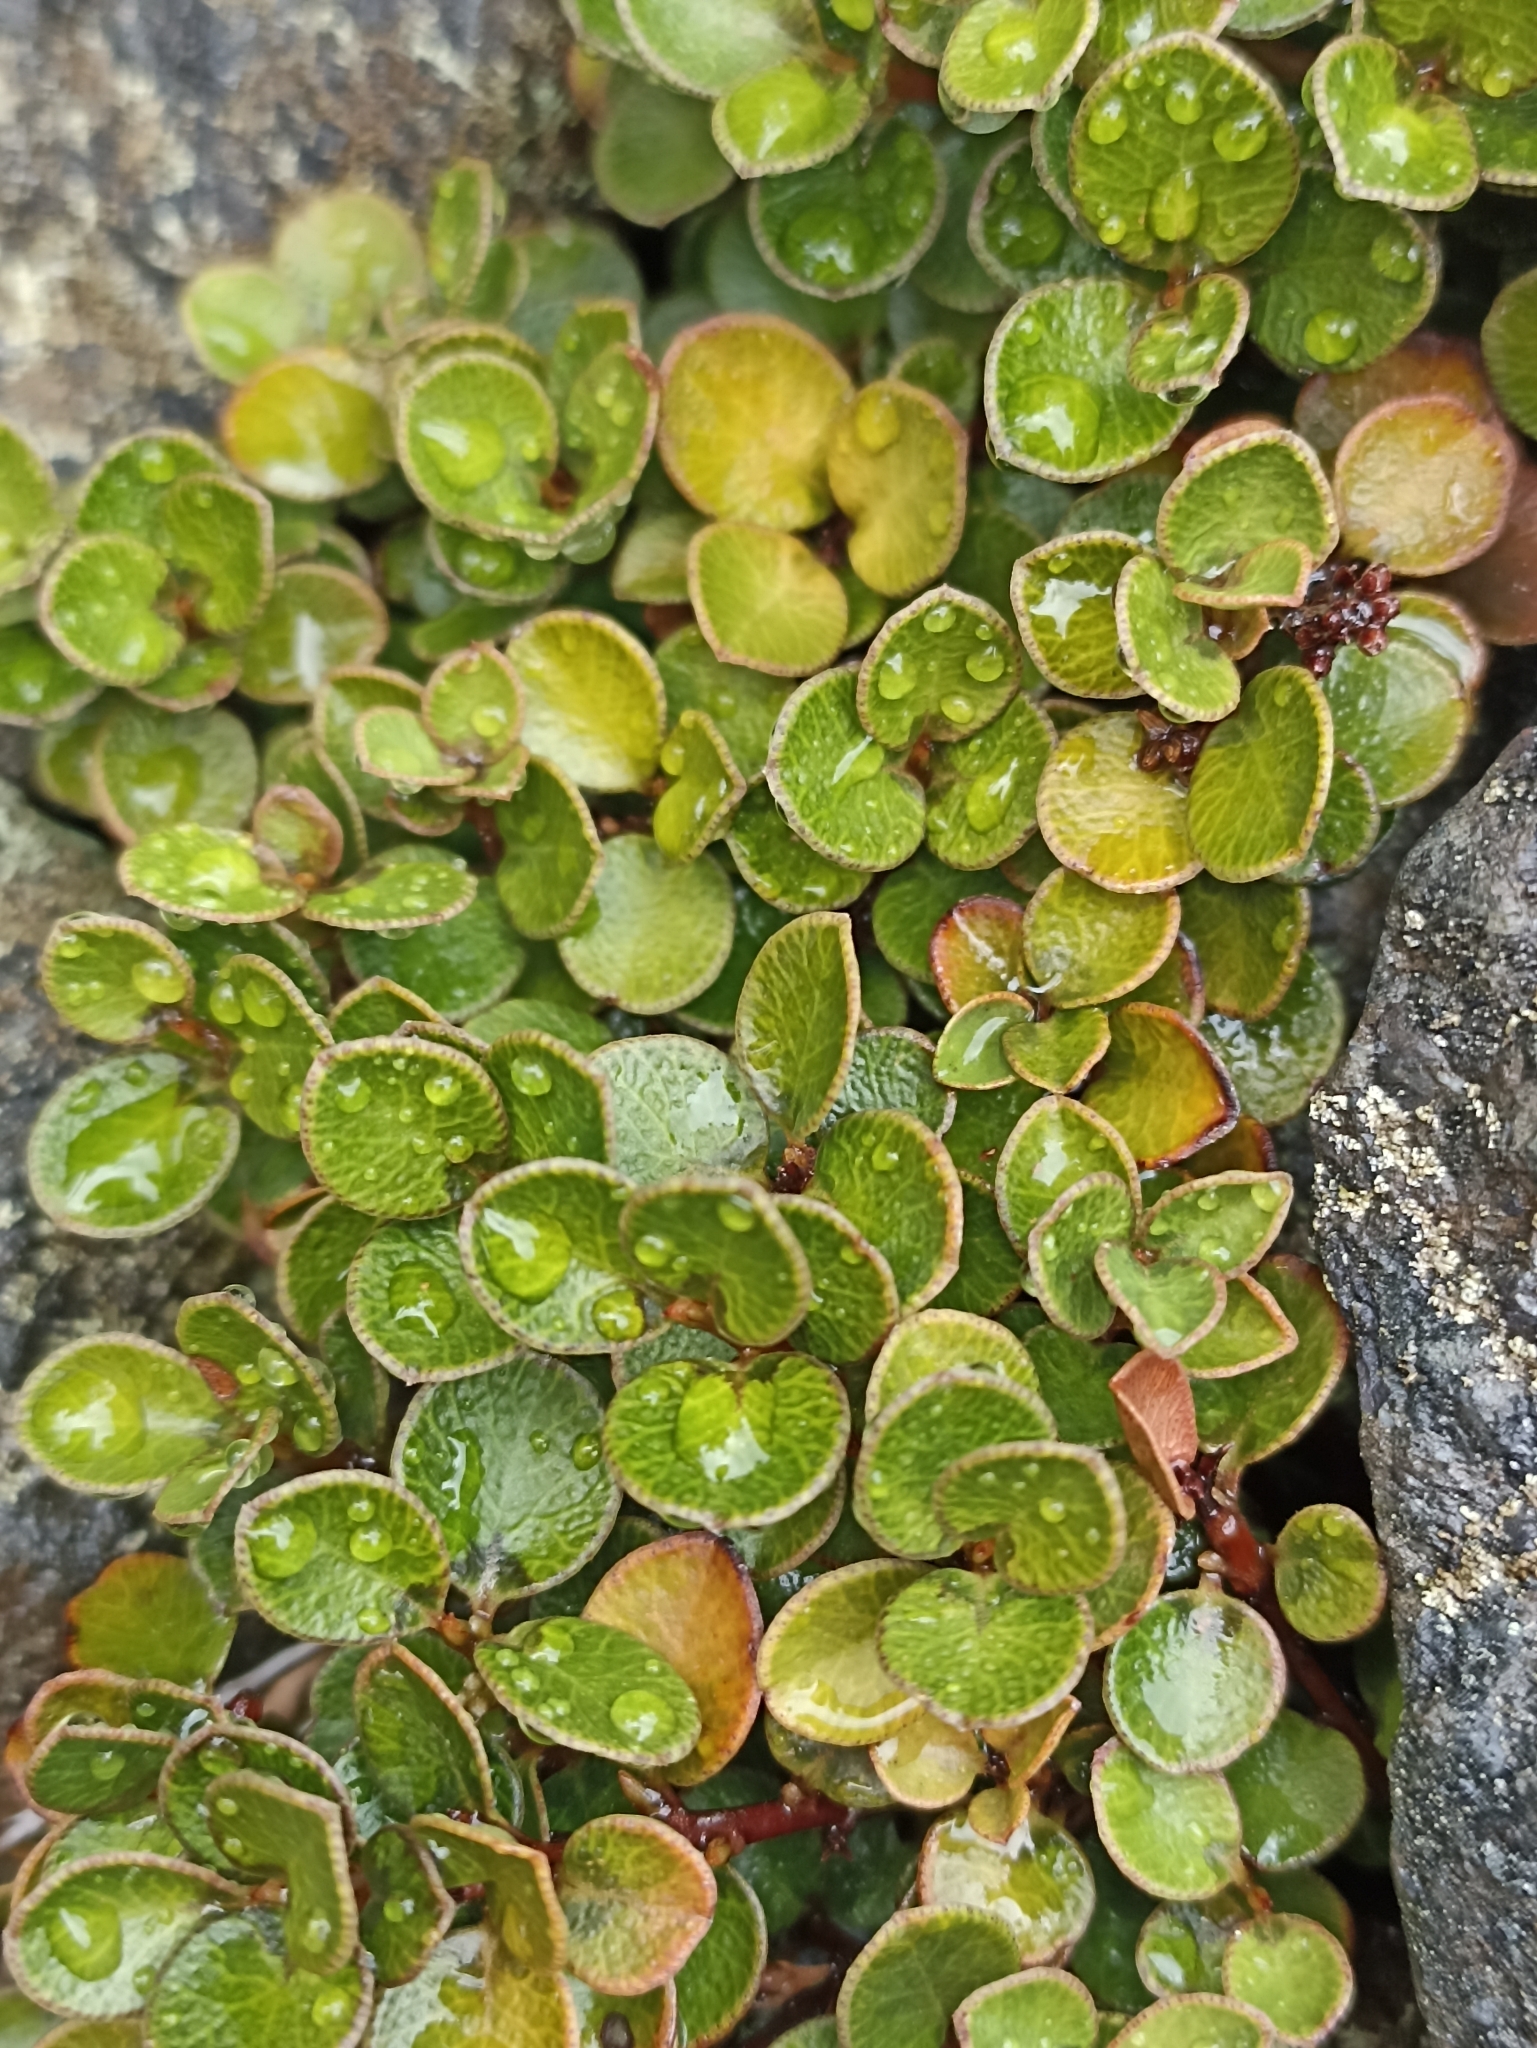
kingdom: Plantae
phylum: Tracheophyta
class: Magnoliopsida
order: Ericales
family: Primulaceae
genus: Myrsine
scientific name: Myrsine nummularia
